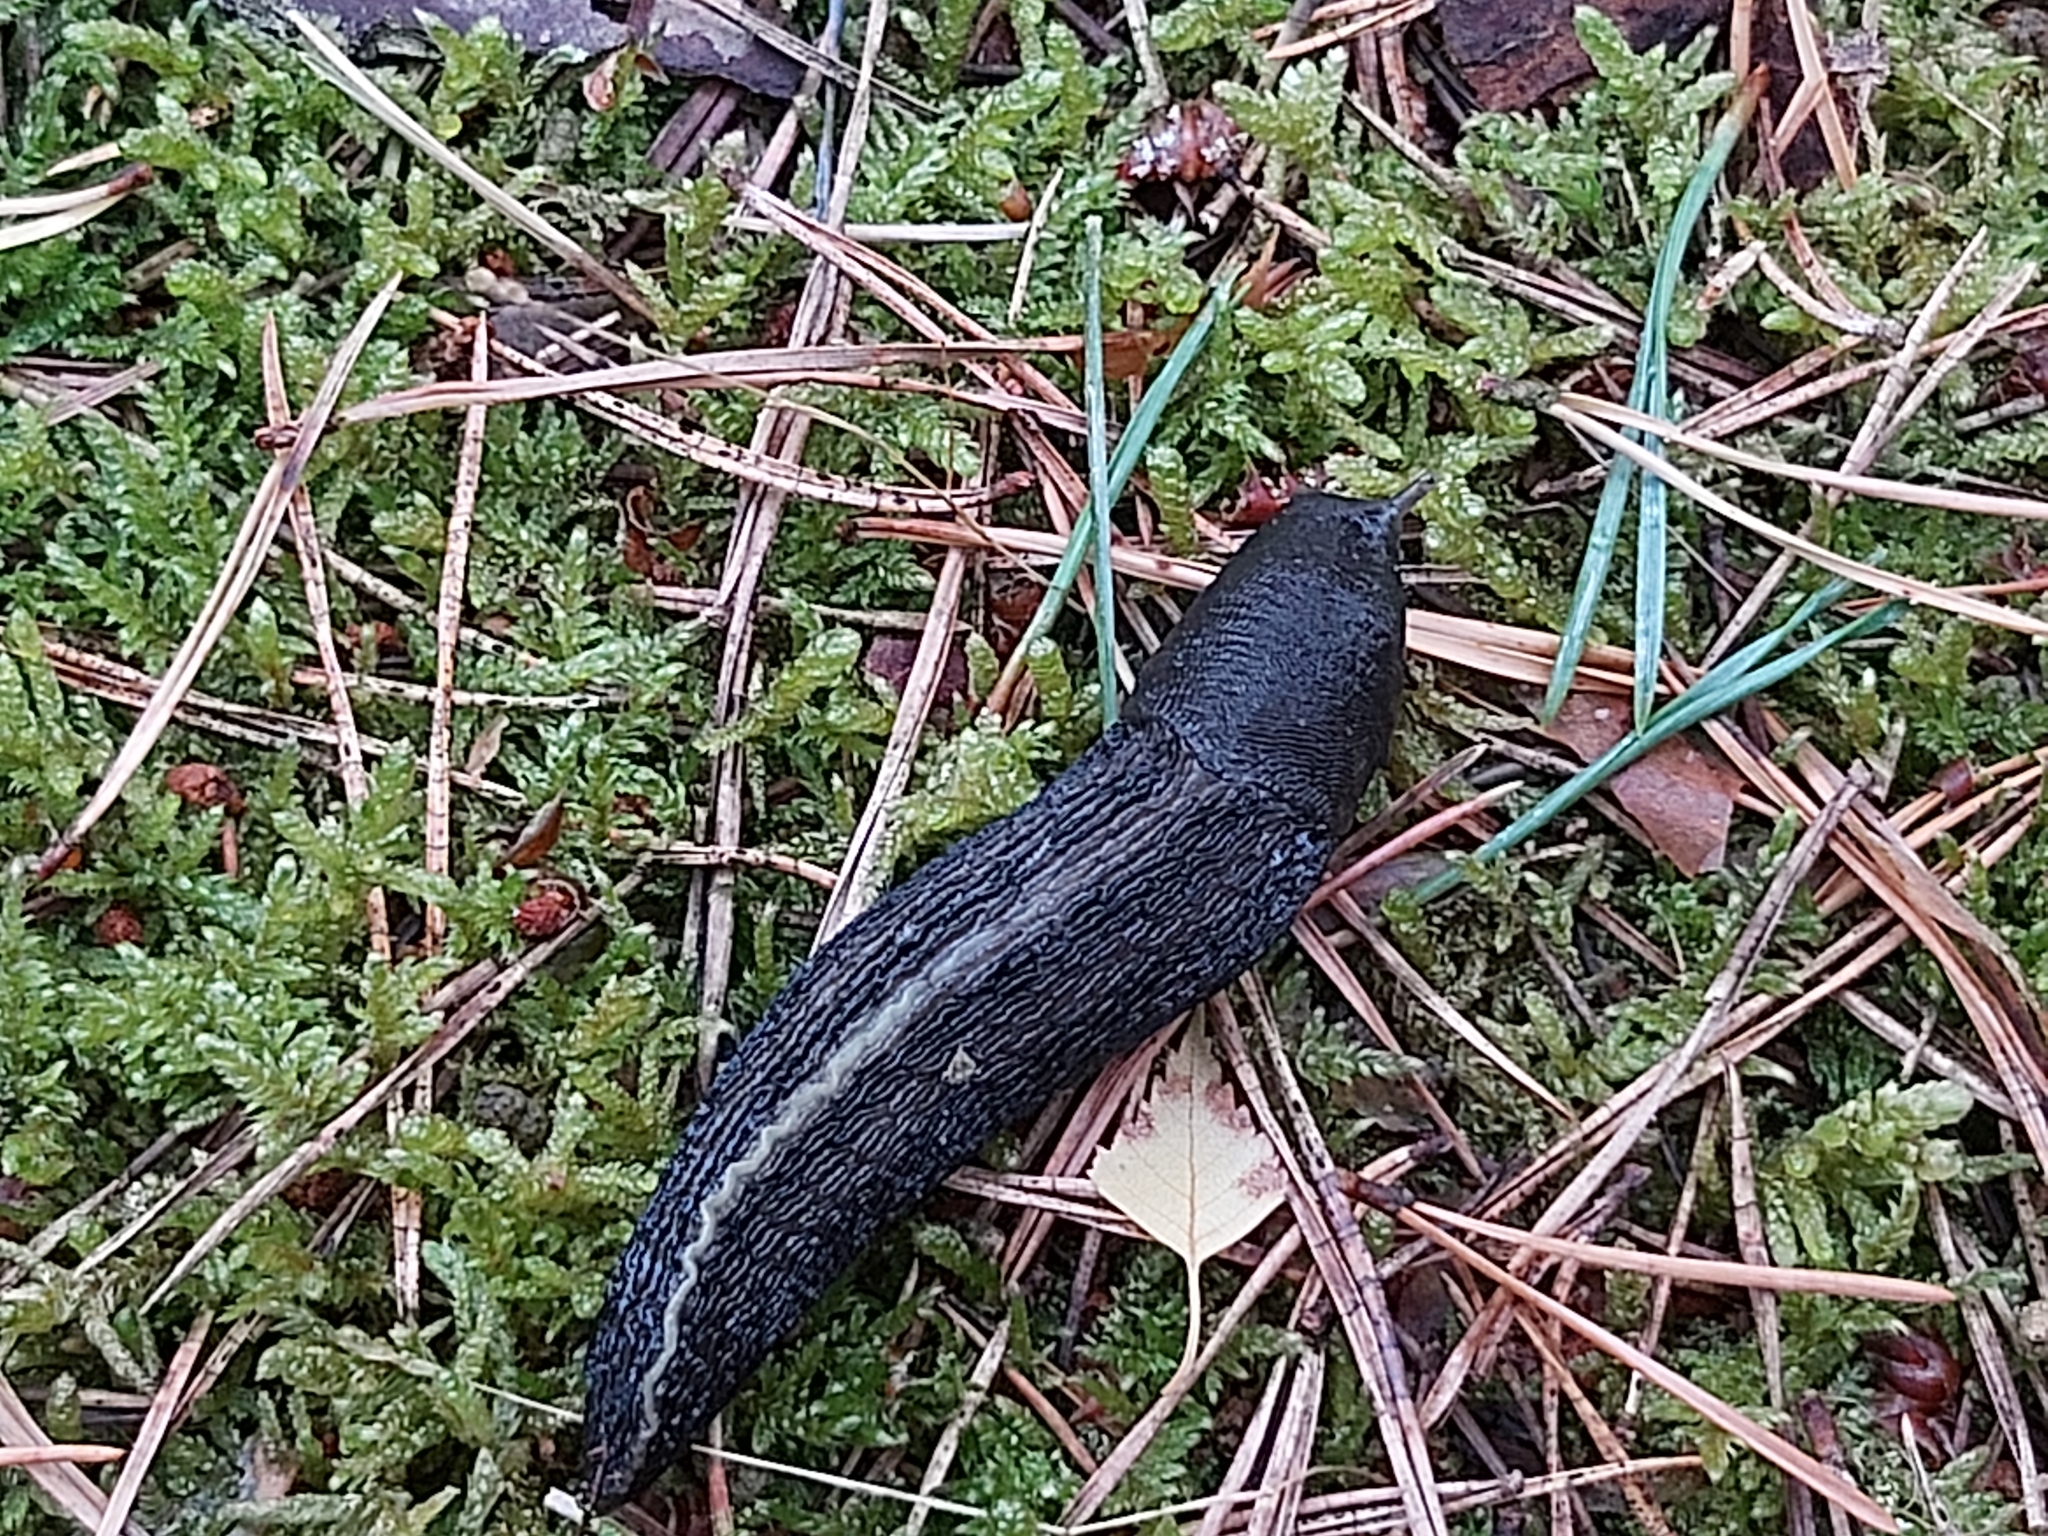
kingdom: Animalia
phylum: Mollusca
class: Gastropoda
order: Stylommatophora
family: Limacidae
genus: Limax
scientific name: Limax cinereoniger
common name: Ash-black slug
